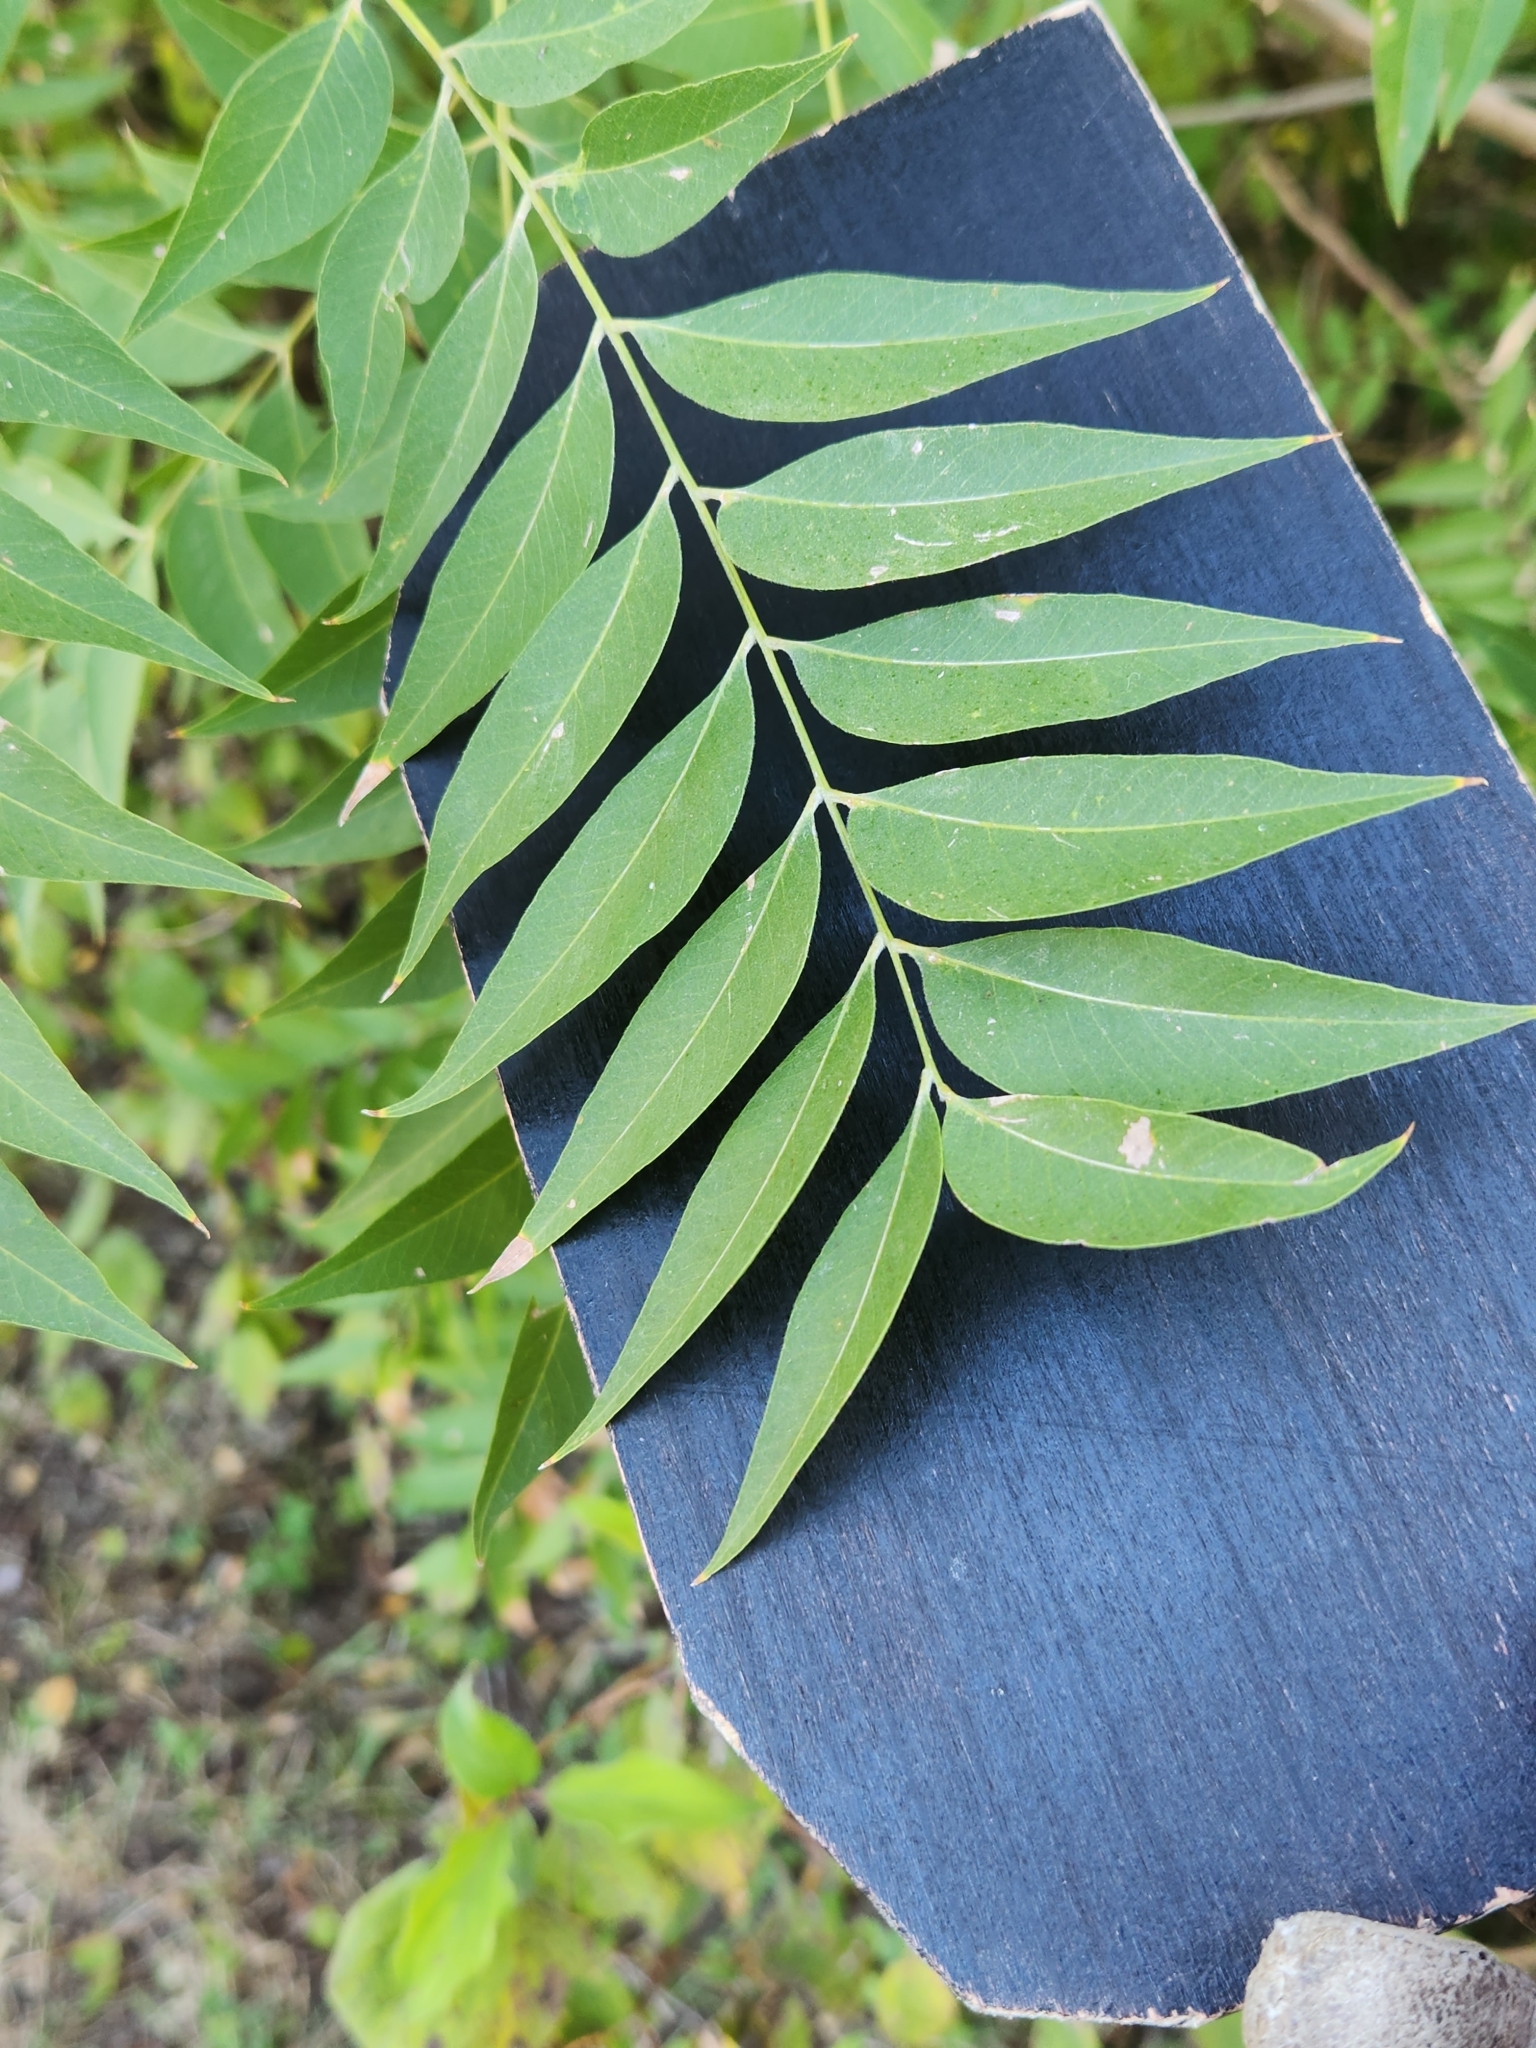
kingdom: Plantae
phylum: Tracheophyta
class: Magnoliopsida
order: Sapindales
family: Sapindaceae
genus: Sapindus
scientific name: Sapindus drummondii
